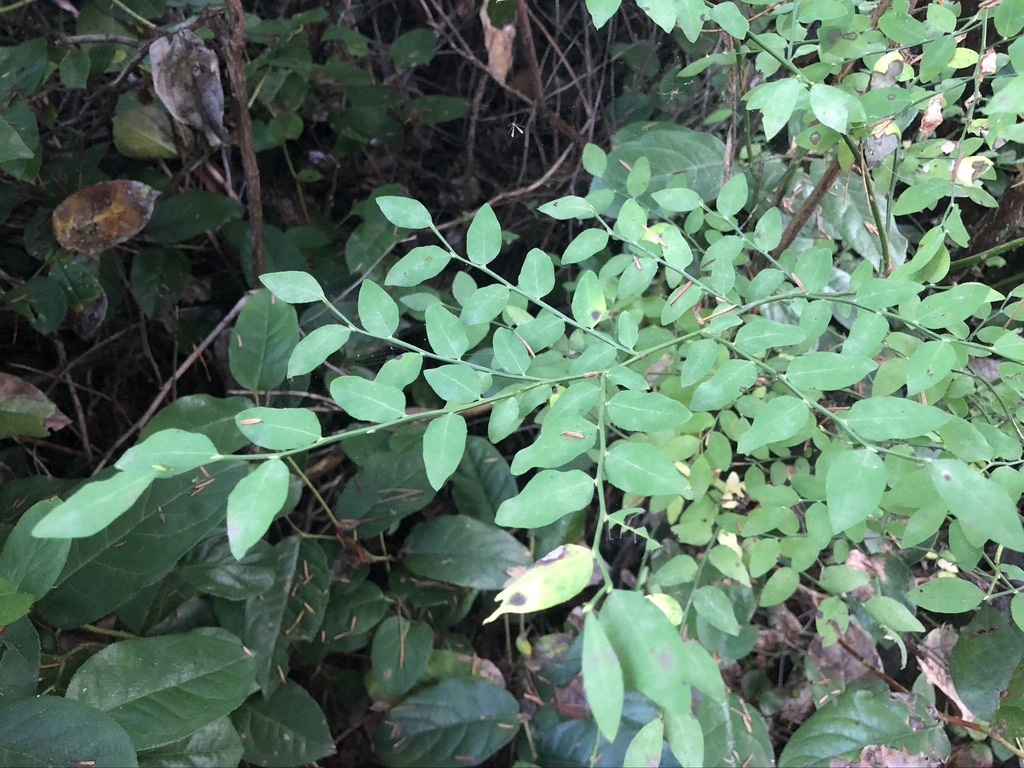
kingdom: Plantae
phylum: Tracheophyta
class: Magnoliopsida
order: Ericales
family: Ericaceae
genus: Vaccinium
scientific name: Vaccinium parvifolium
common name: Red-huckleberry
